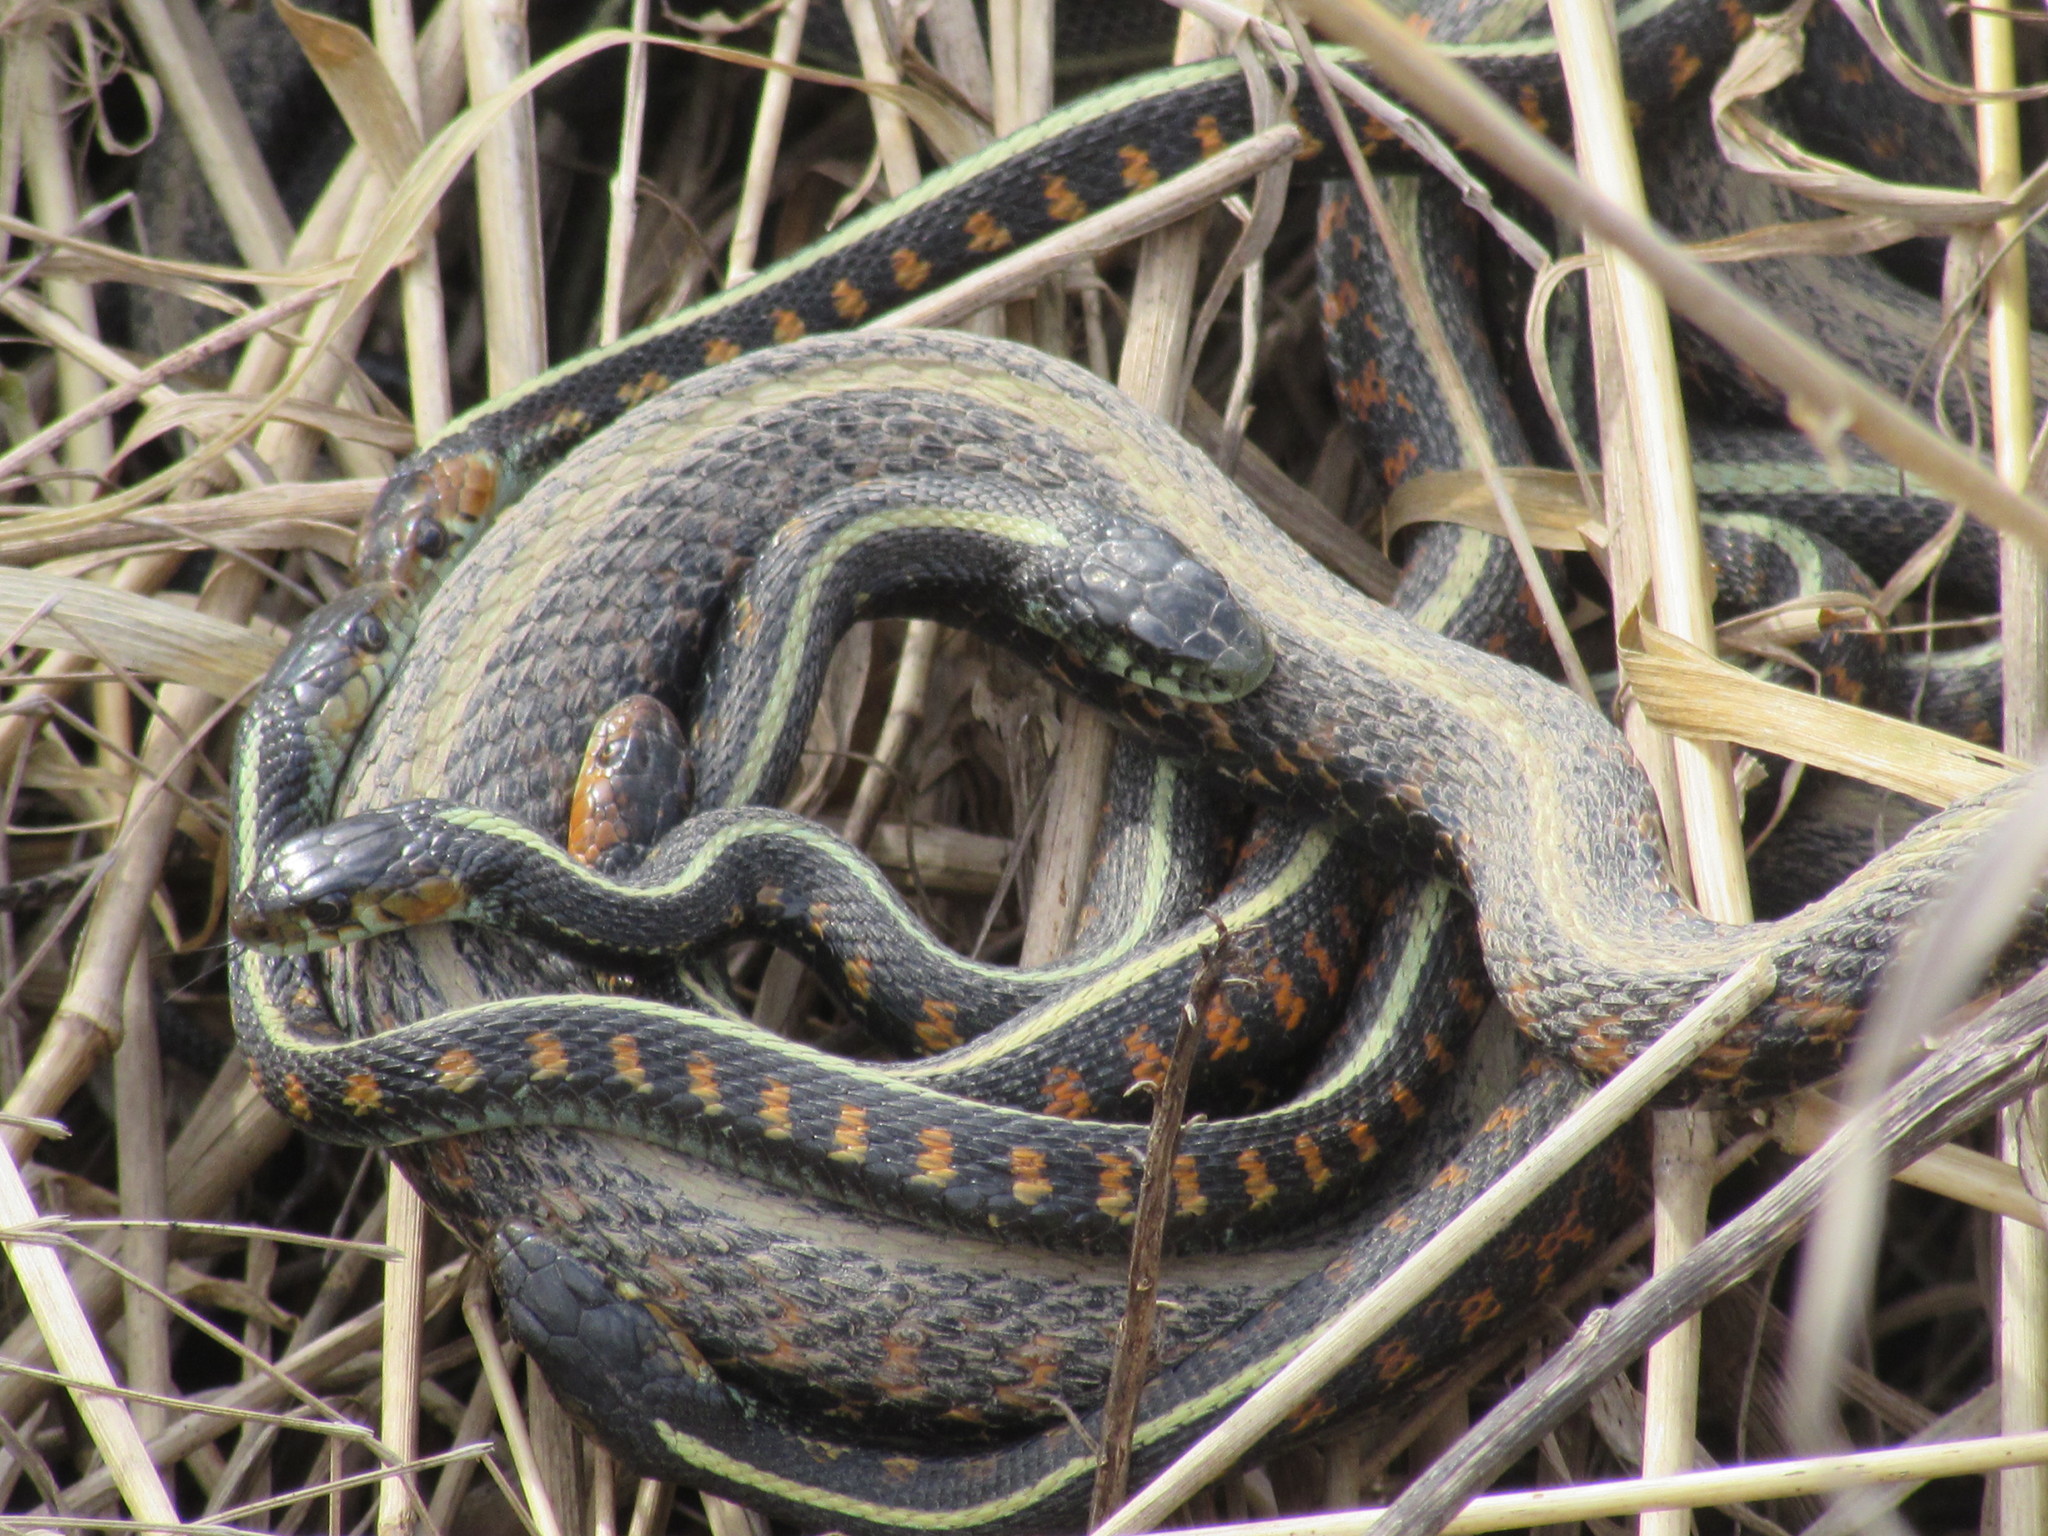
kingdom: Animalia
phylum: Chordata
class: Squamata
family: Colubridae
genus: Thamnophis
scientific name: Thamnophis sirtalis
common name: Common garter snake
